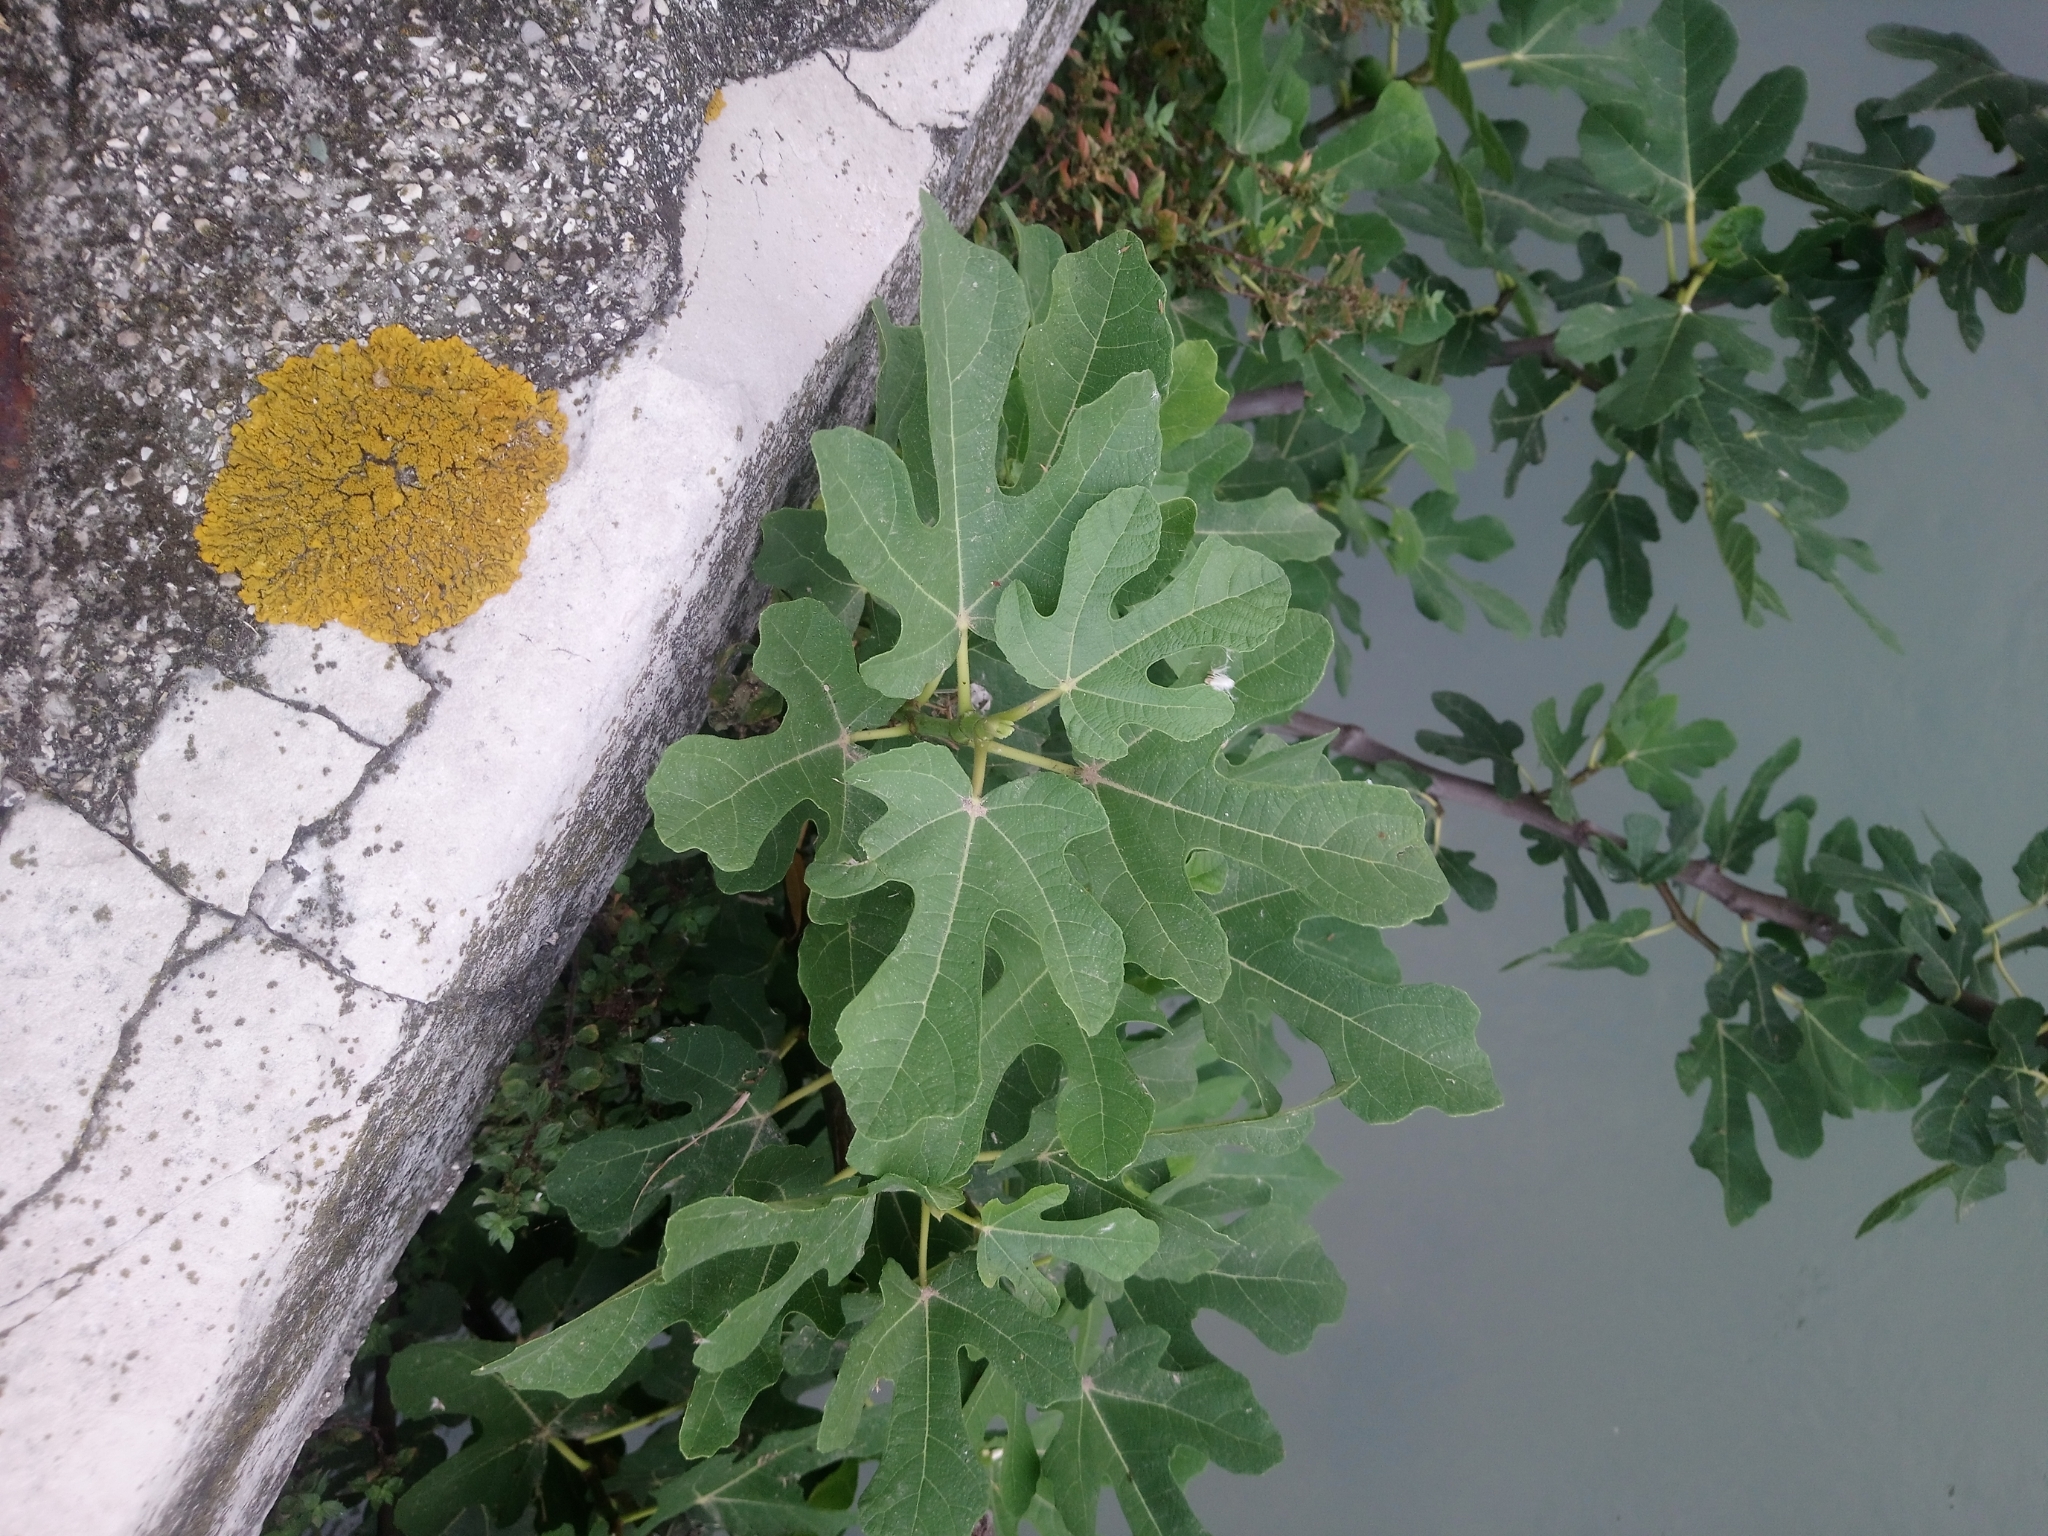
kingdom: Plantae
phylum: Tracheophyta
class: Magnoliopsida
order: Rosales
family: Moraceae
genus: Ficus
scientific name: Ficus carica
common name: Fig
